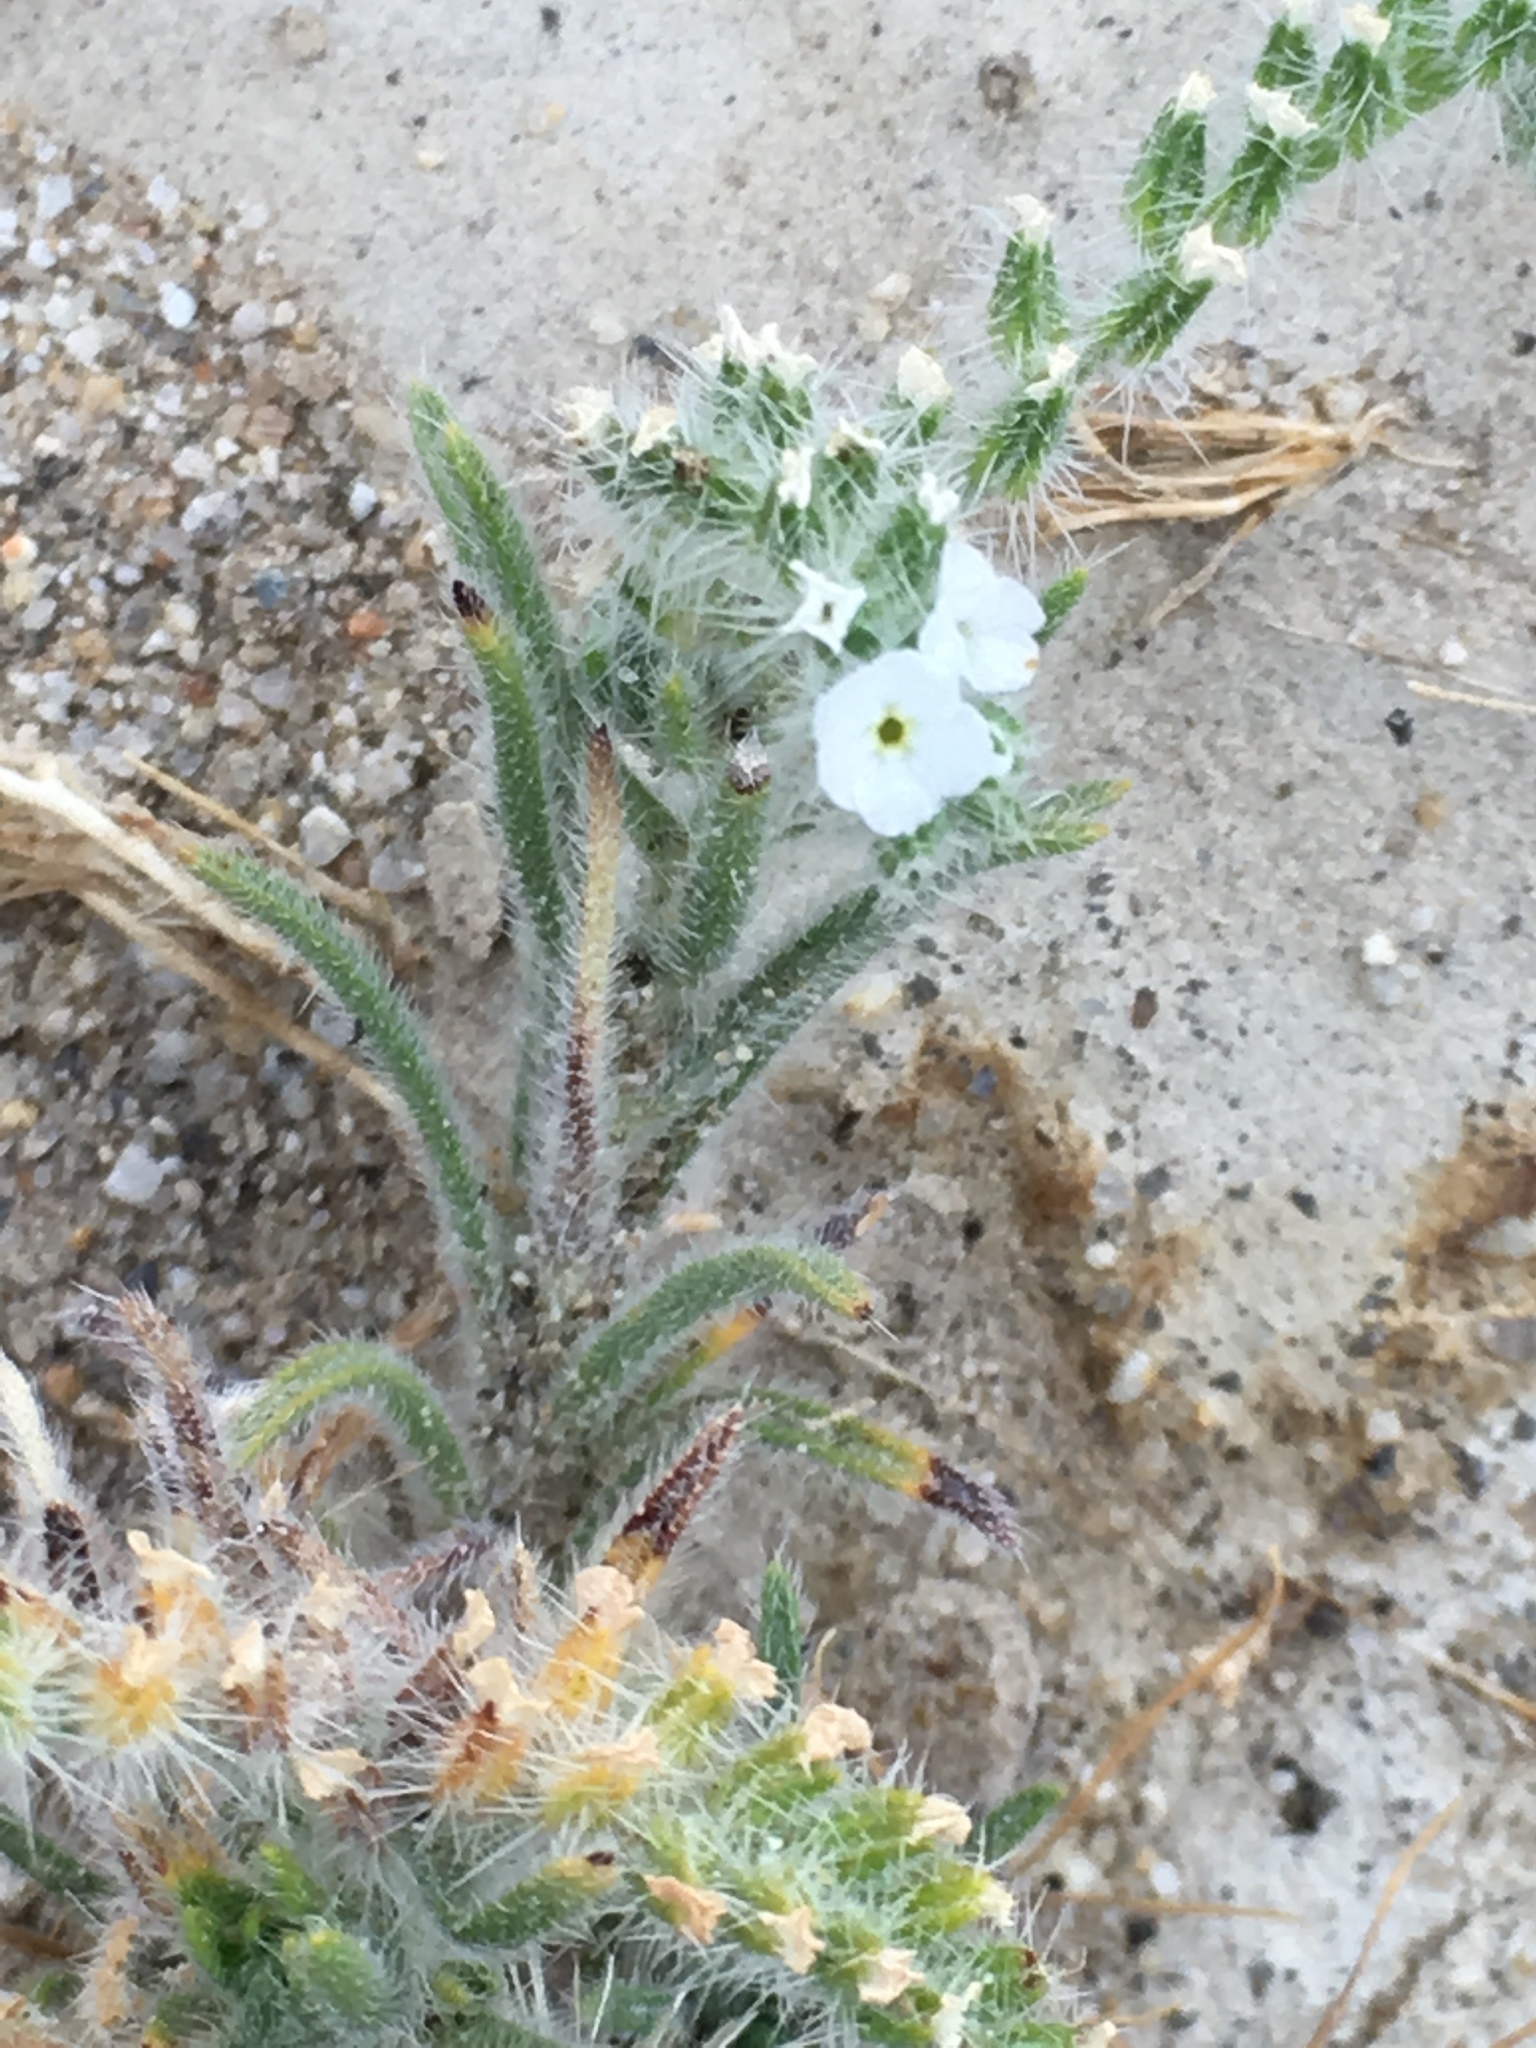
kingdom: Plantae
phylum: Tracheophyta
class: Magnoliopsida
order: Boraginales
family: Boraginaceae
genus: Johnstonella
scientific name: Johnstonella angustifolia
